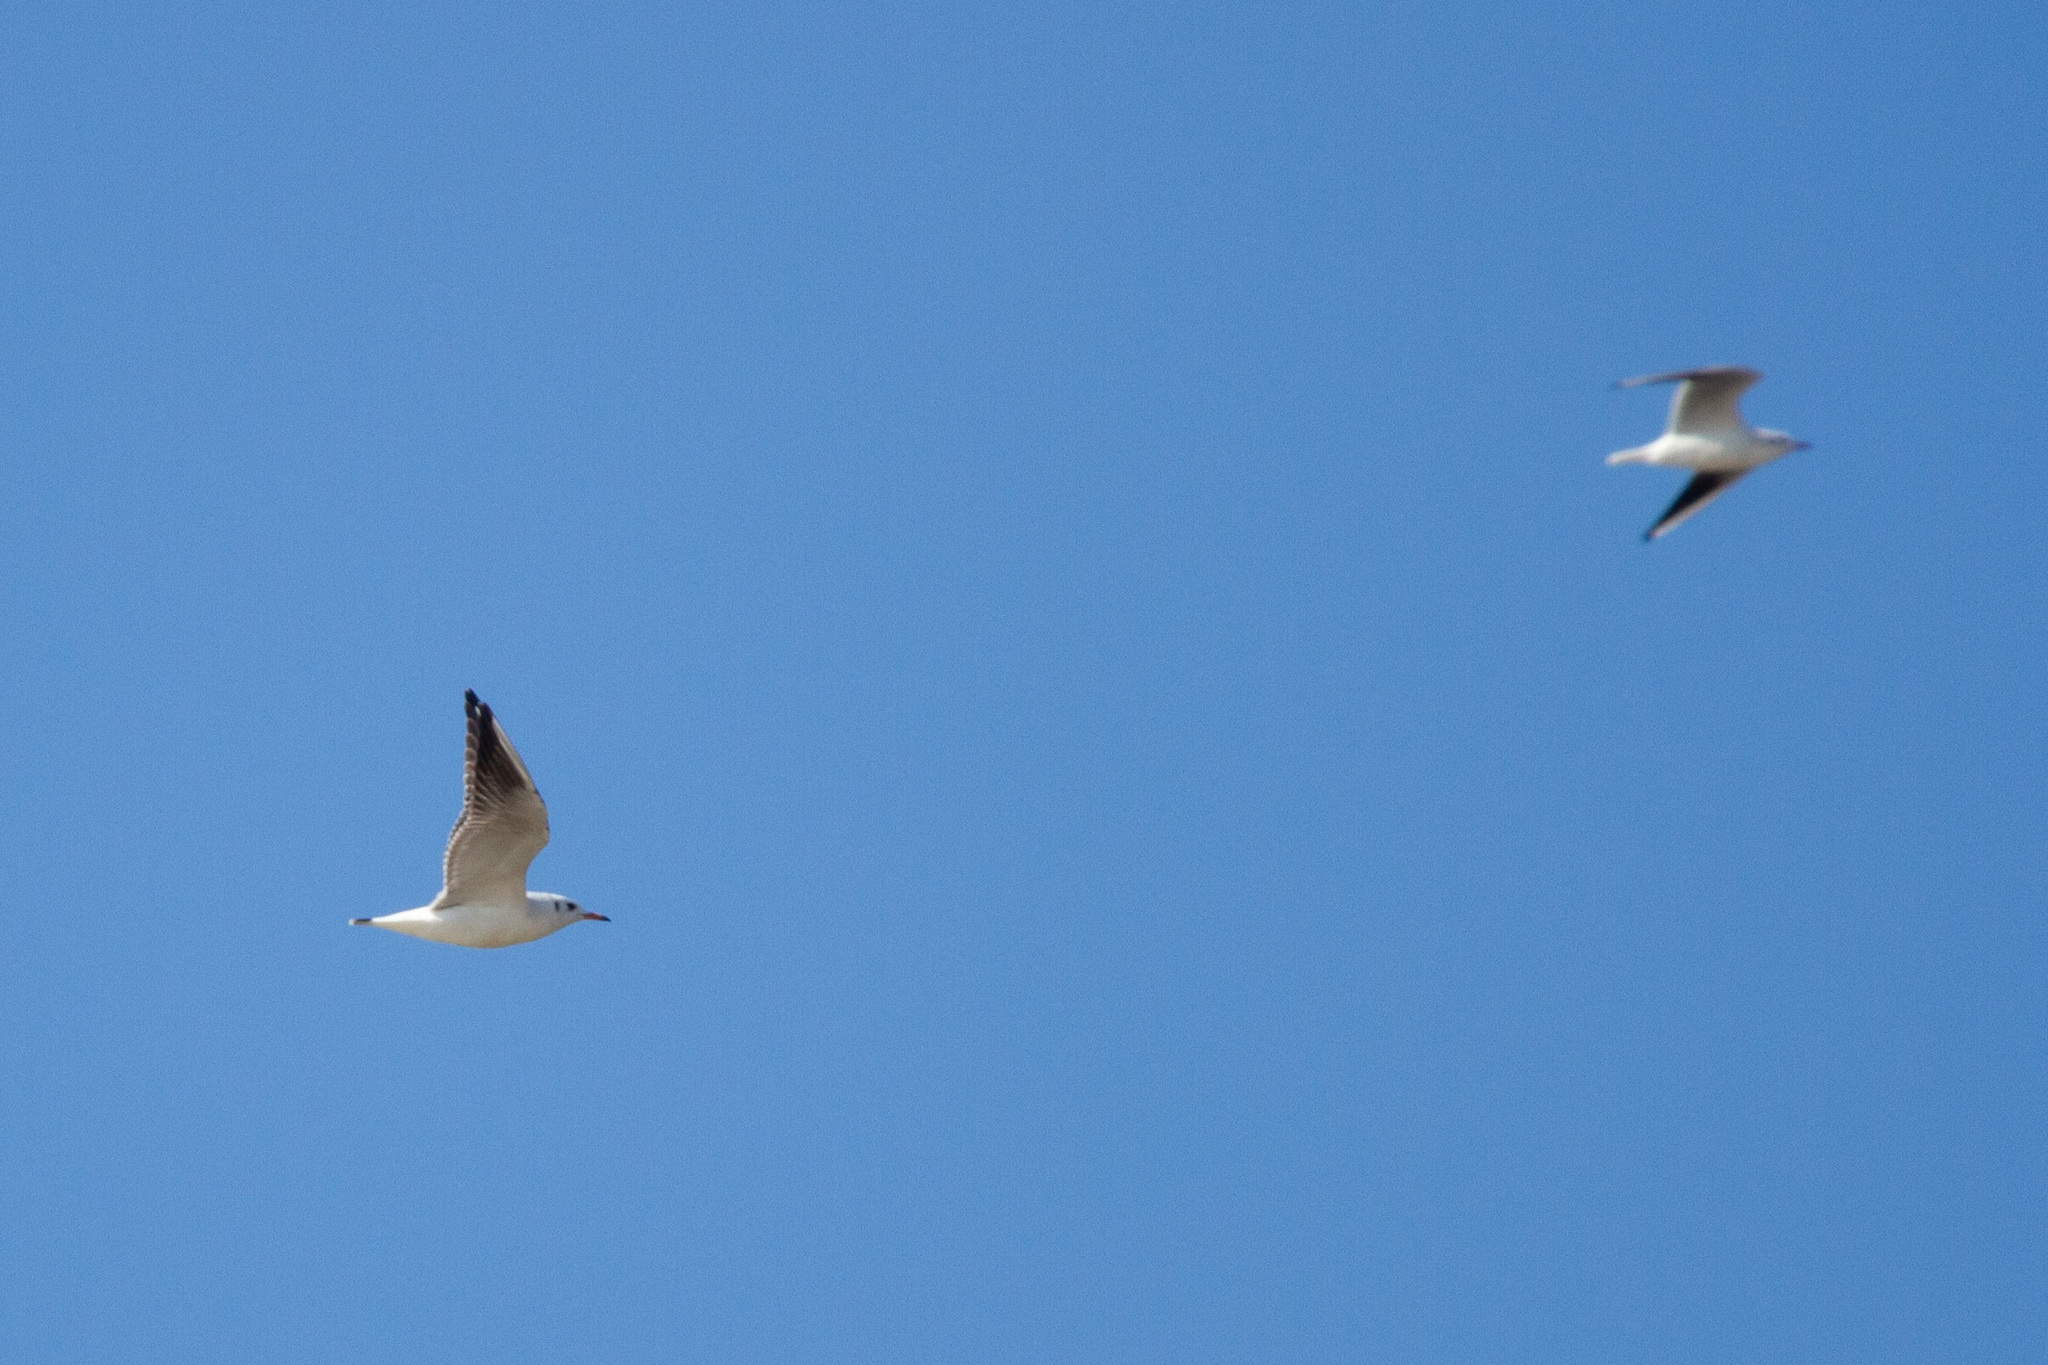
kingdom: Animalia
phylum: Chordata
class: Aves
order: Charadriiformes
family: Laridae
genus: Chroicocephalus
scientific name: Chroicocephalus ridibundus
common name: Black-headed gull
